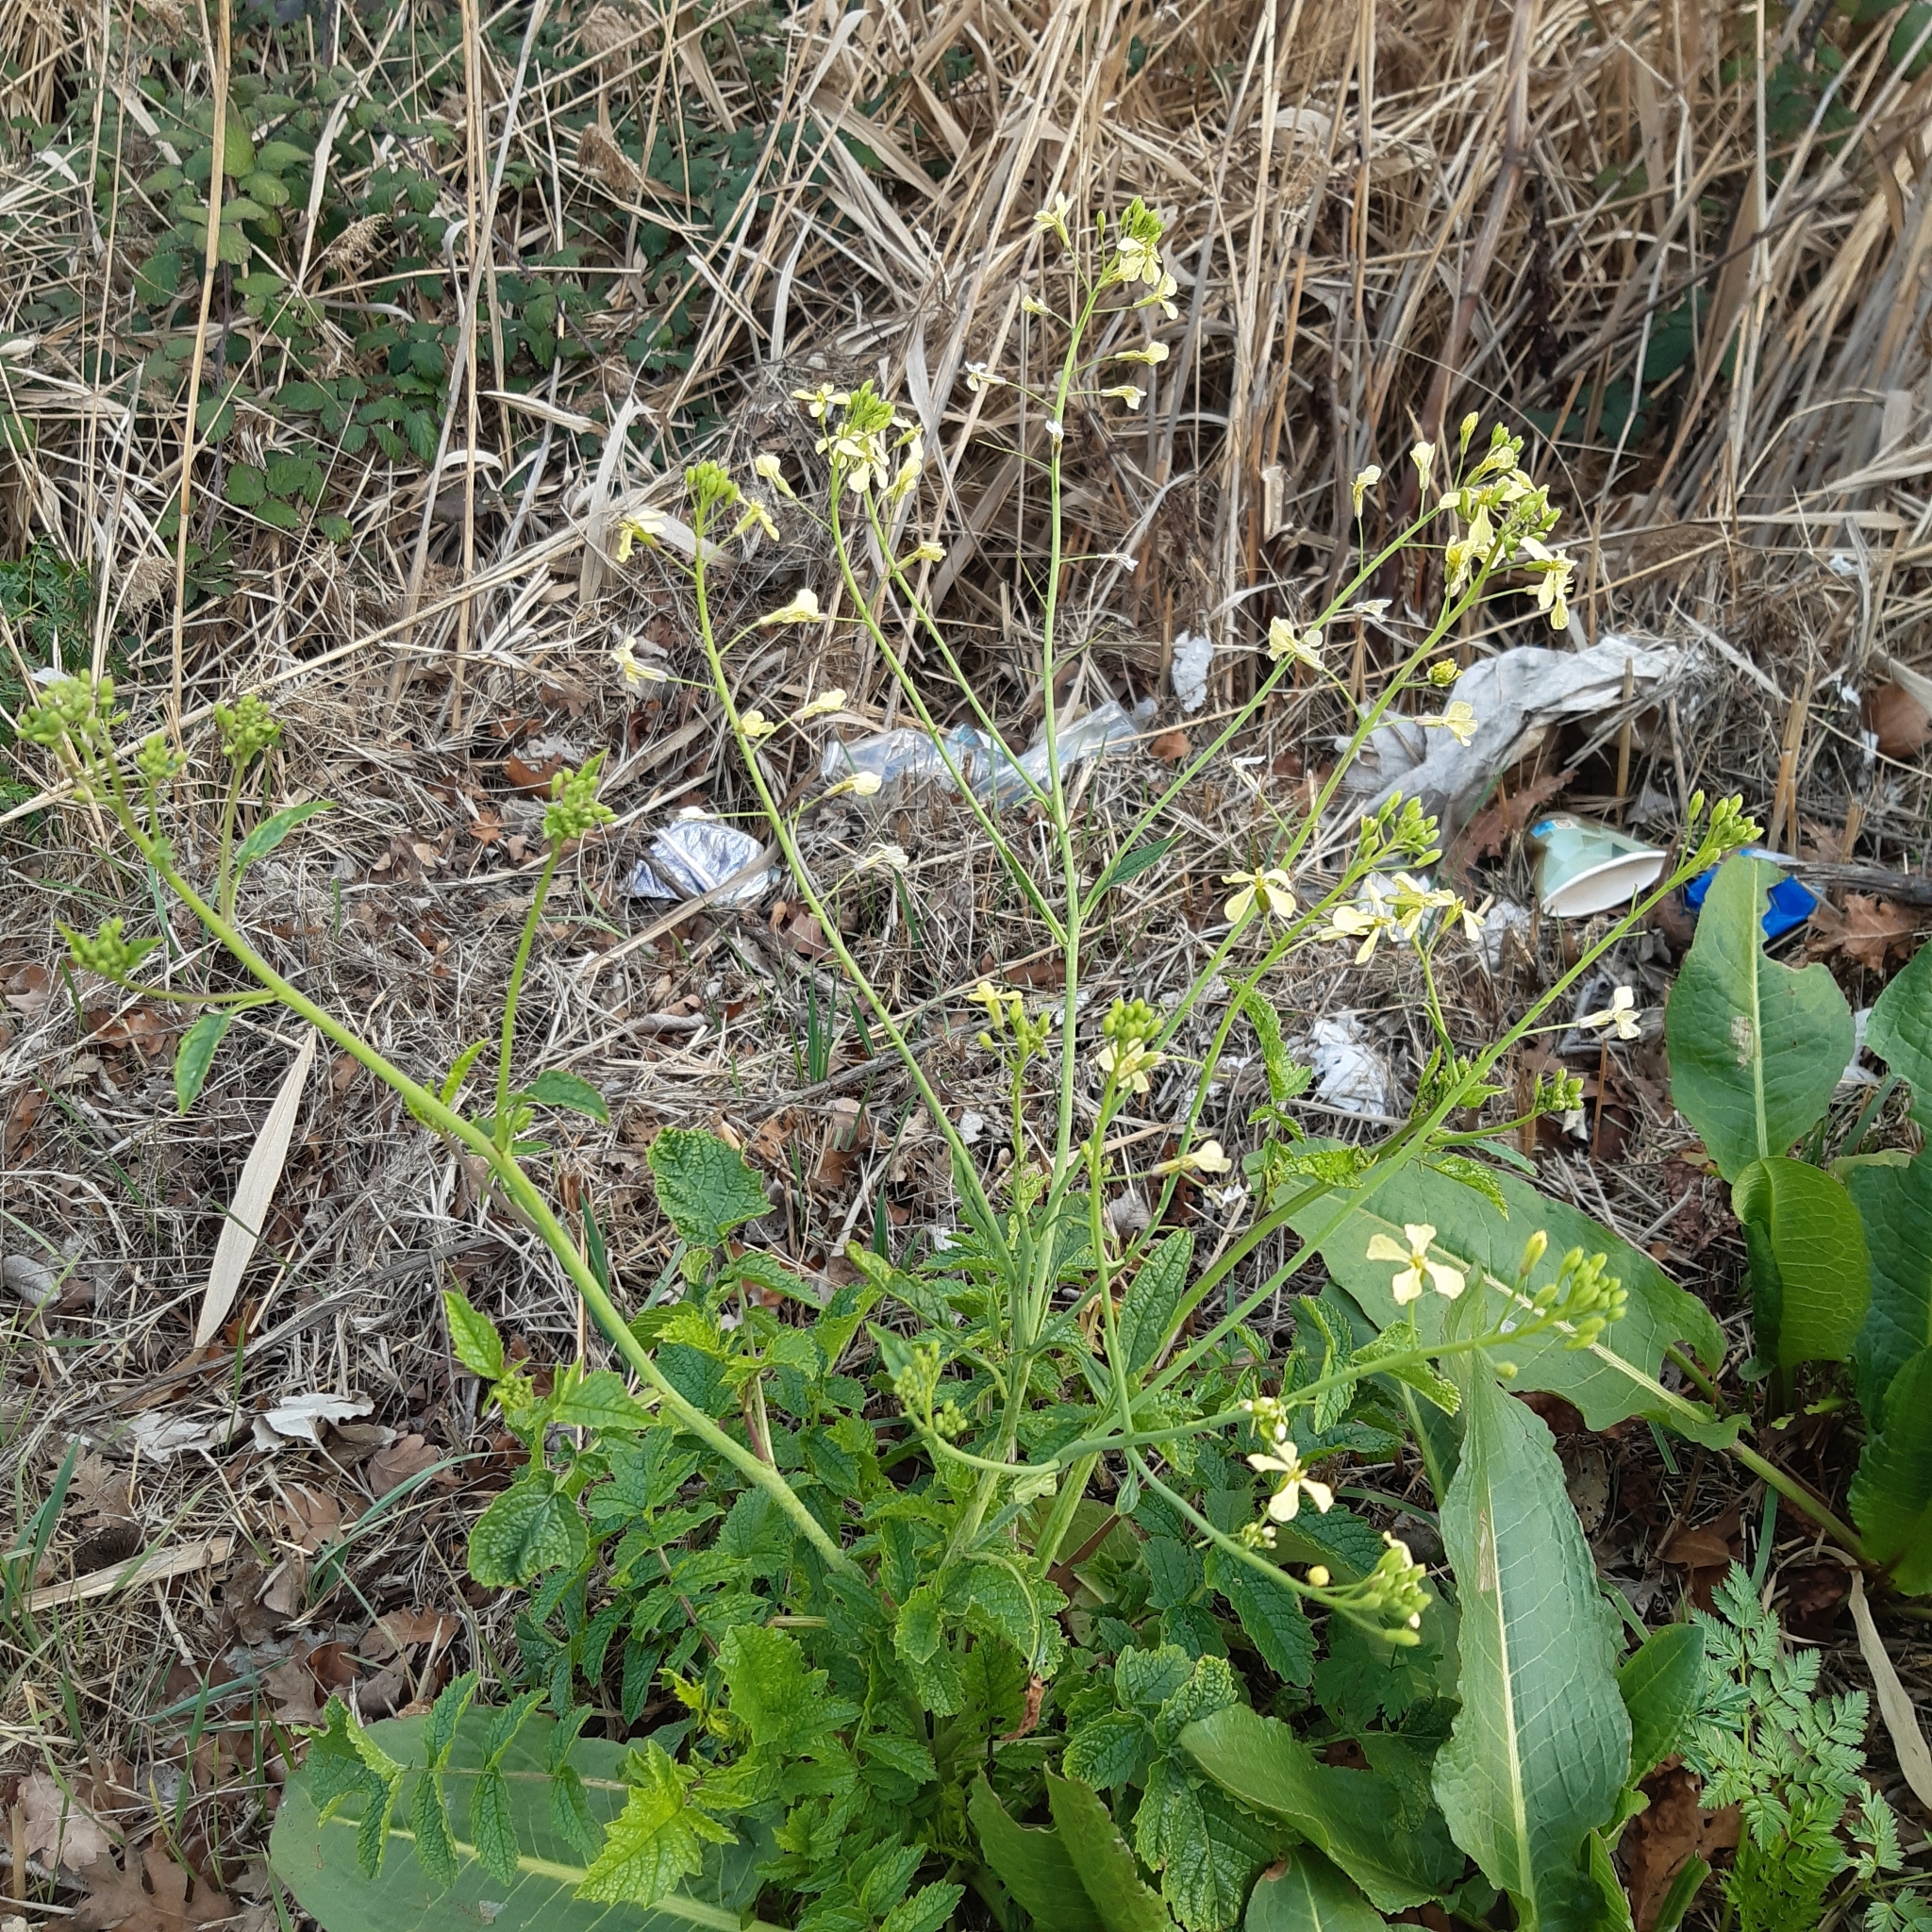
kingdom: Plantae
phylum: Tracheophyta
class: Magnoliopsida
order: Brassicales
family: Brassicaceae
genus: Raphanus
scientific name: Raphanus raphanistrum
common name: Wild radish
